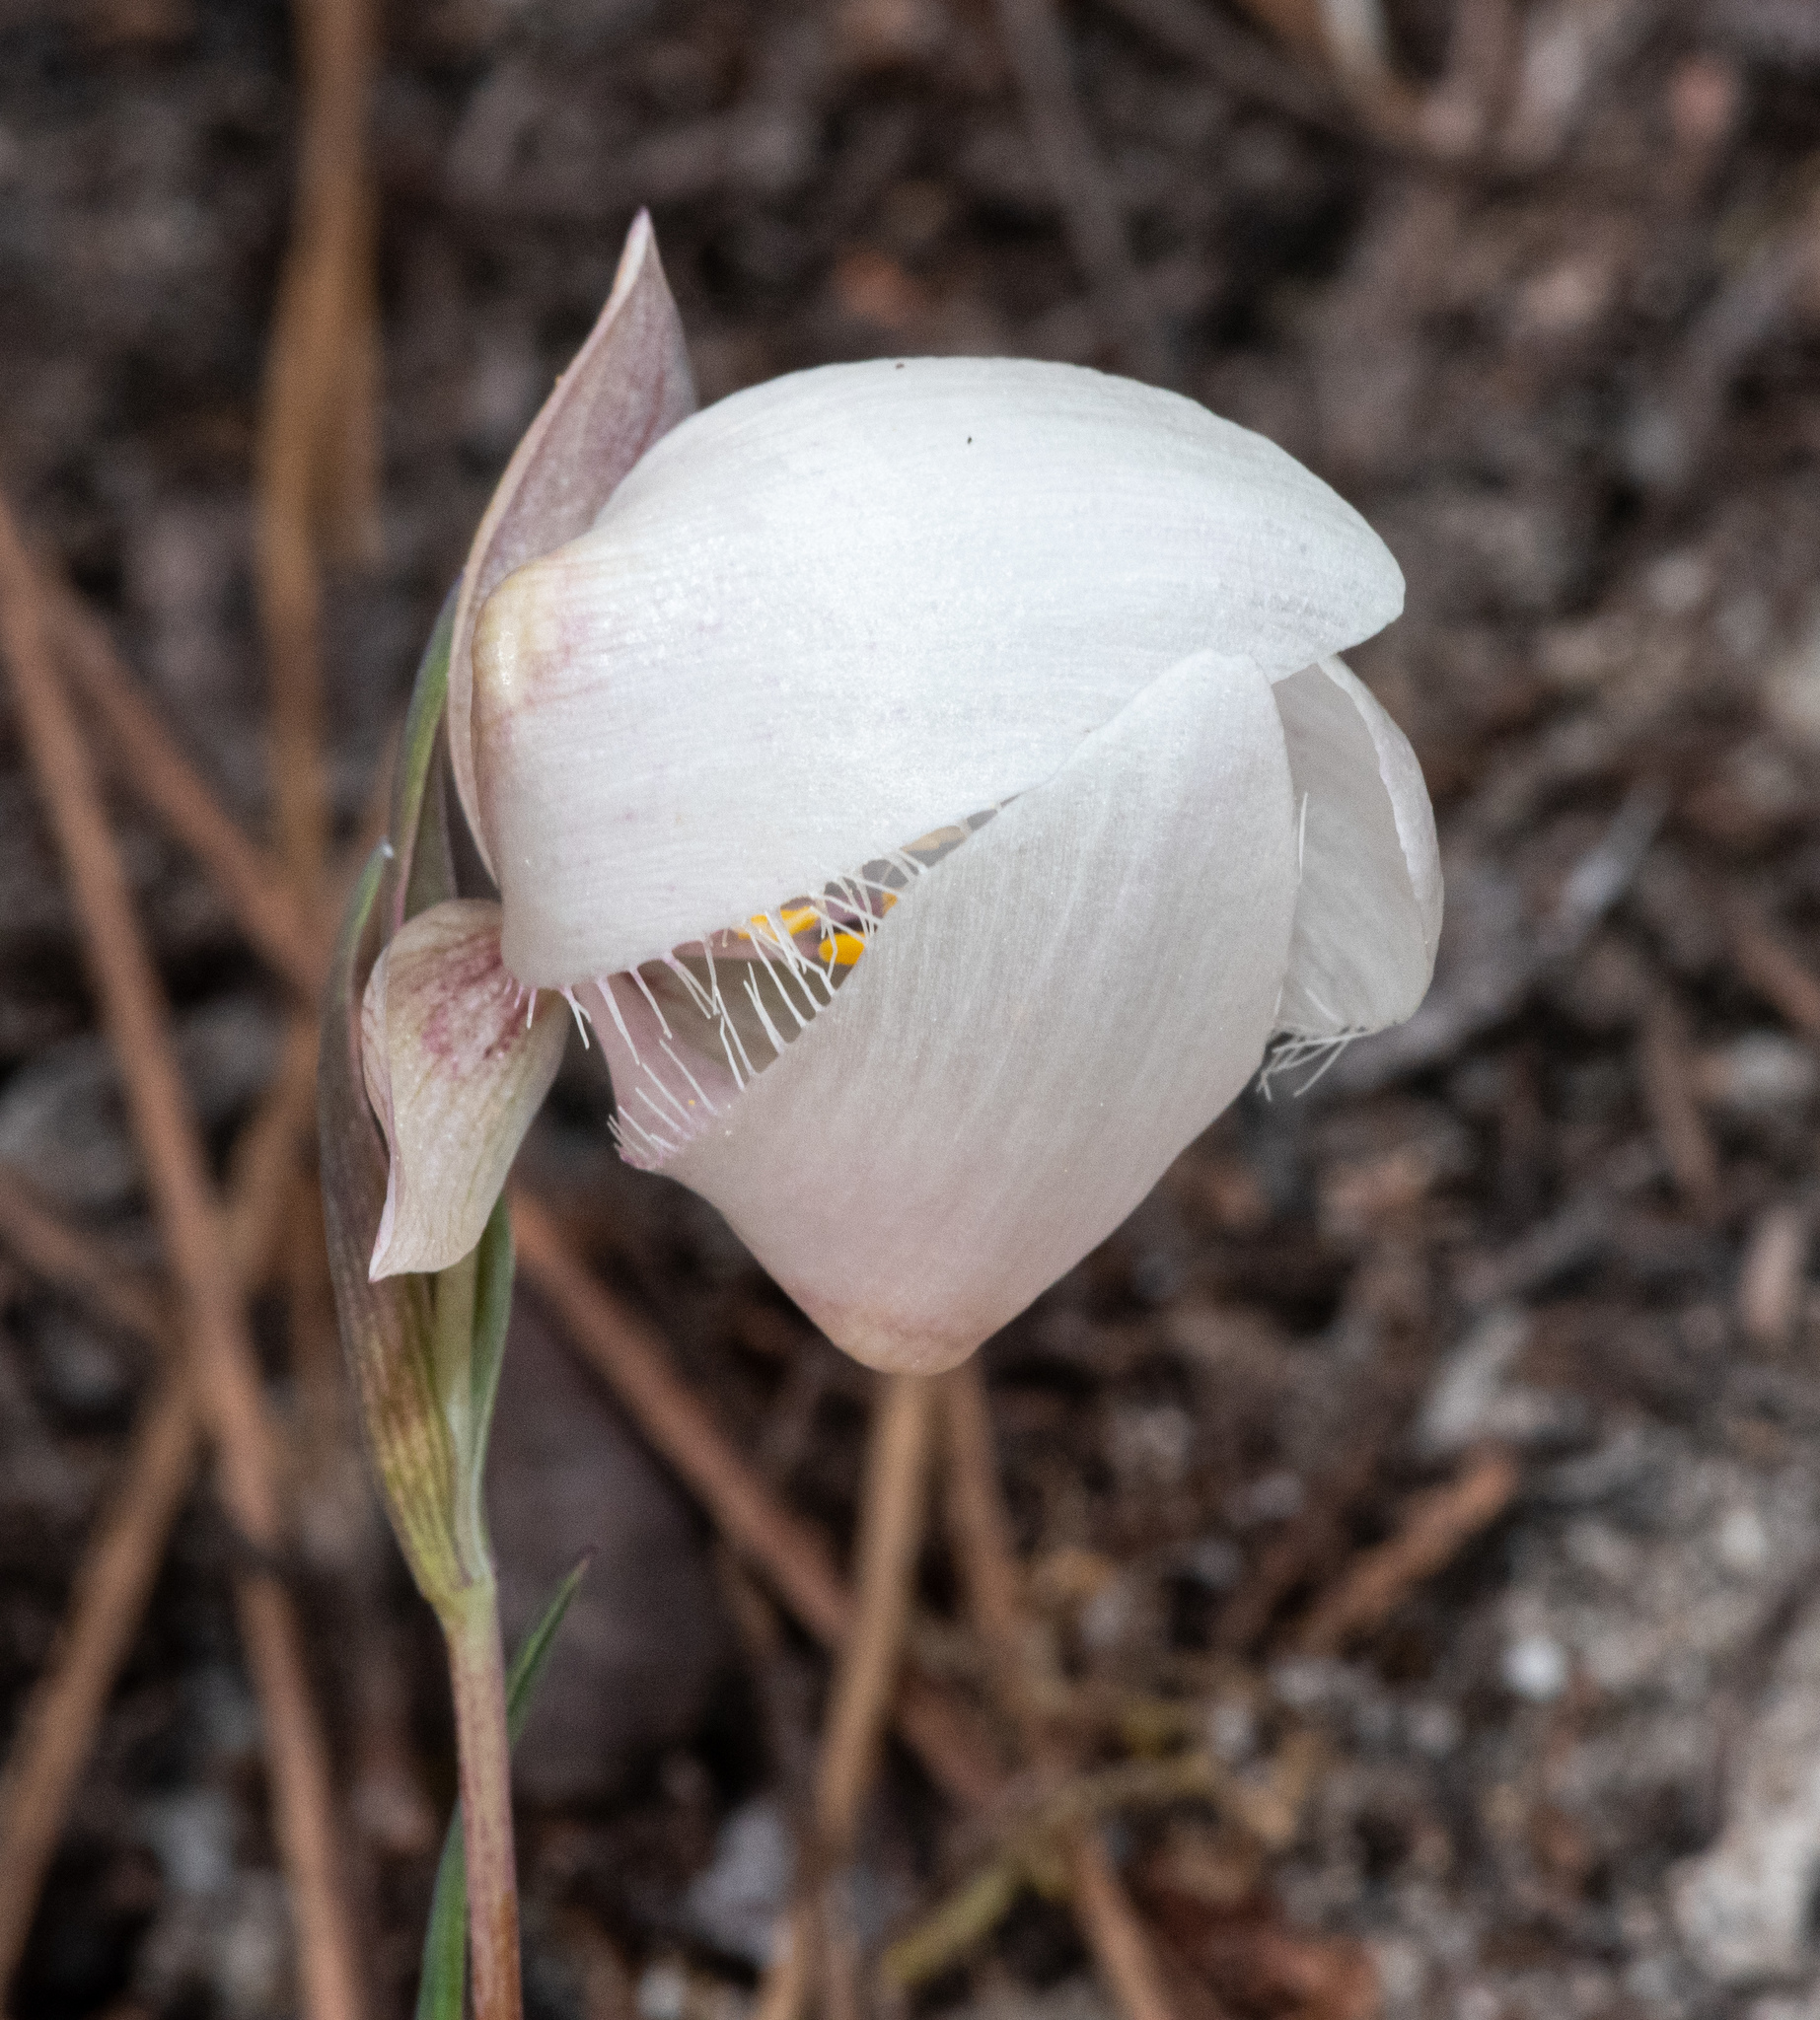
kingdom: Plantae
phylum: Tracheophyta
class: Liliopsida
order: Liliales
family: Liliaceae
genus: Calochortus
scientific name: Calochortus albus
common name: Fairy-lantern
